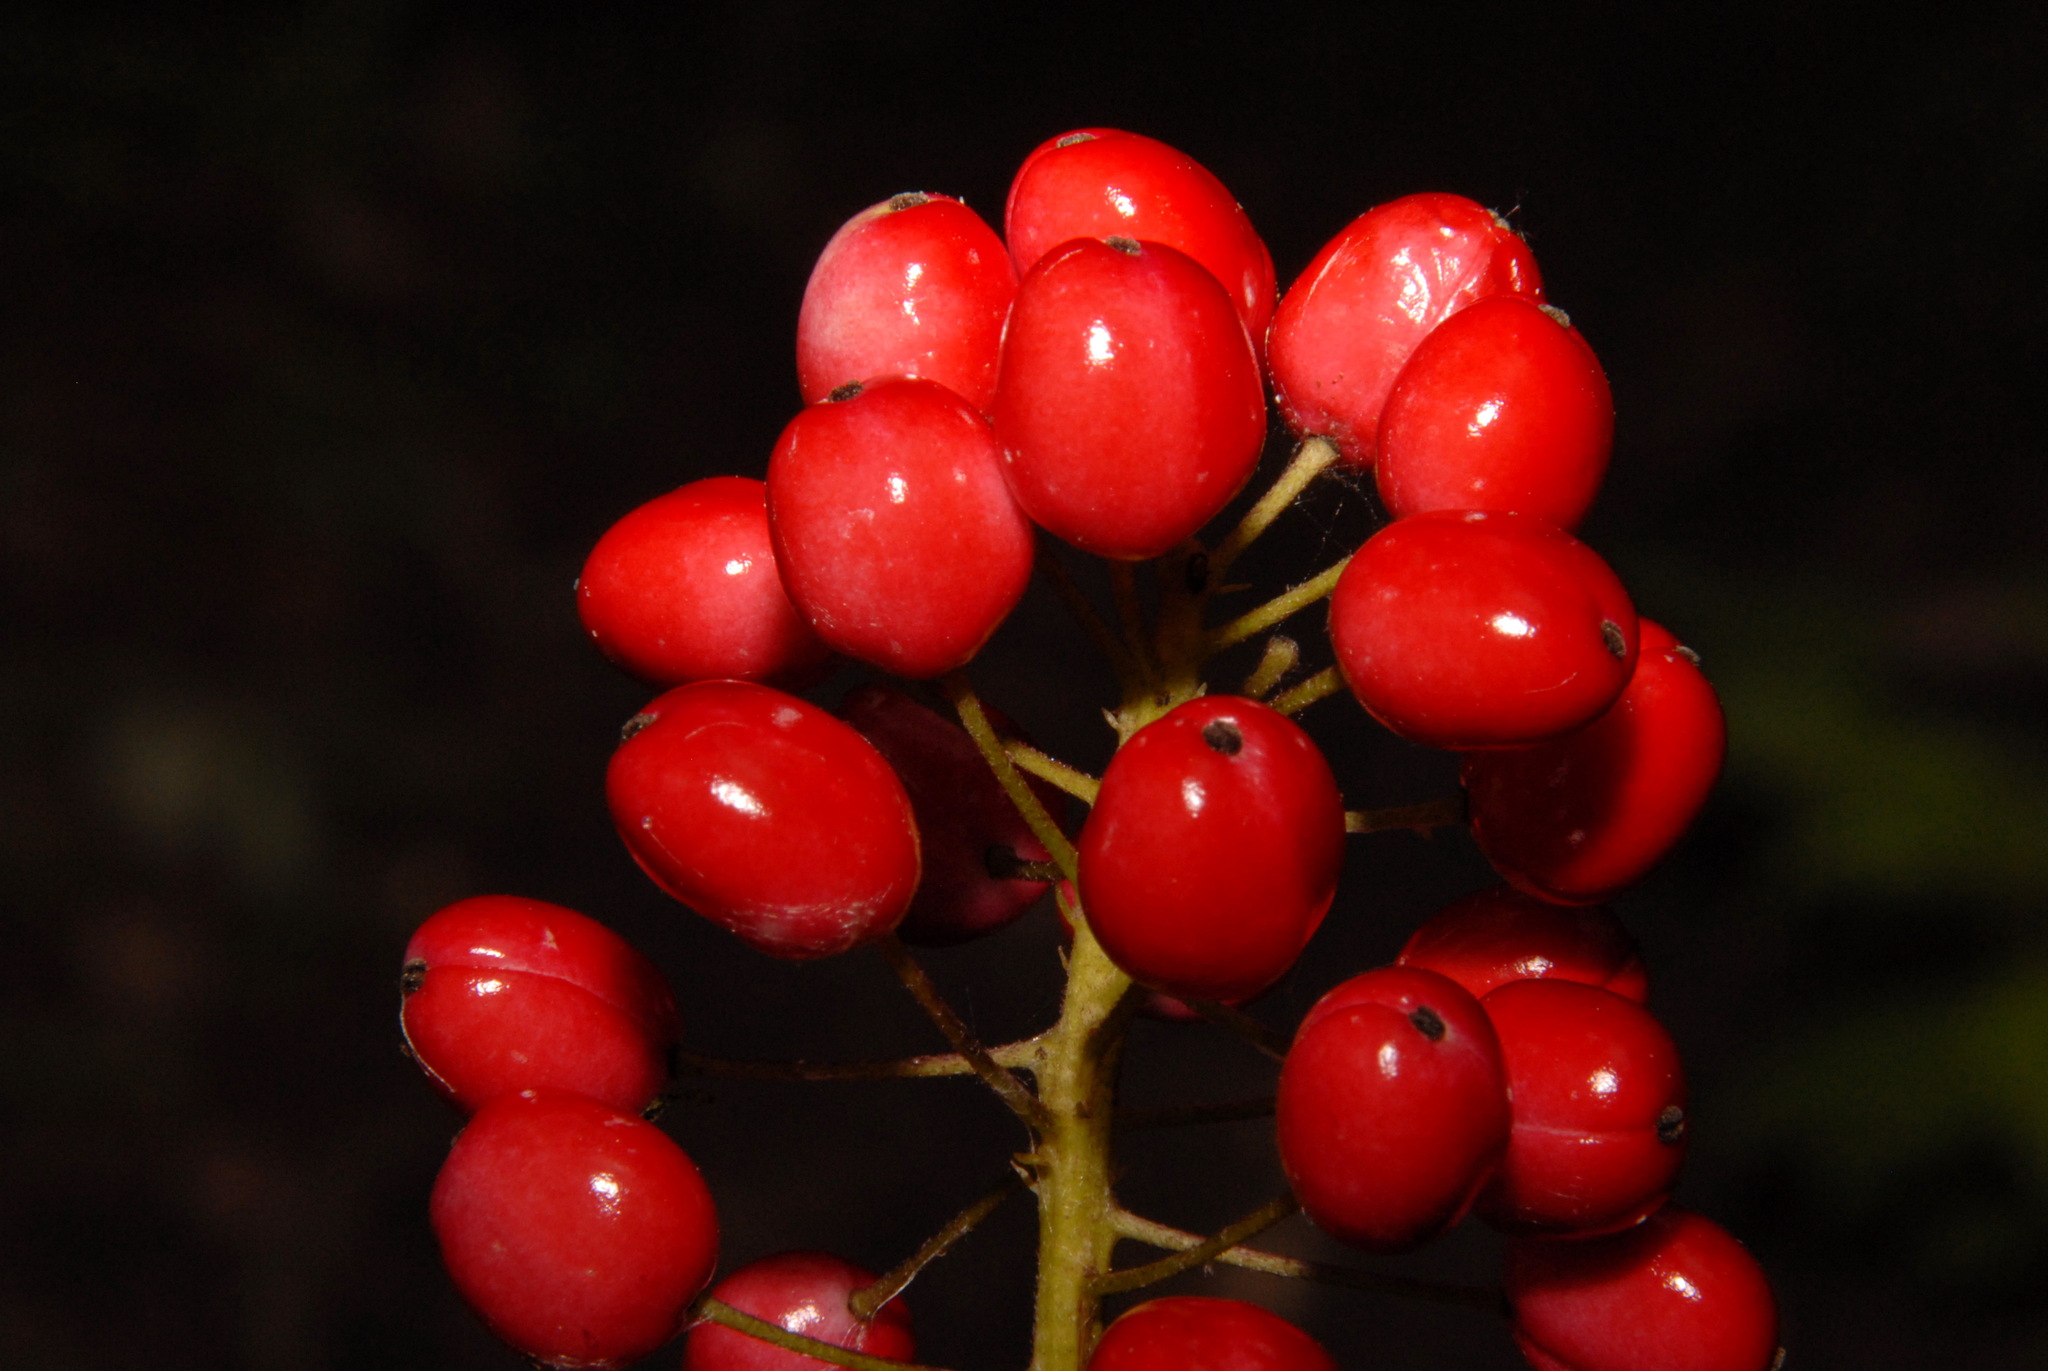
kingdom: Plantae
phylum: Tracheophyta
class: Magnoliopsida
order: Ranunculales
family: Ranunculaceae
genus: Actaea
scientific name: Actaea rubra
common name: Red baneberry
